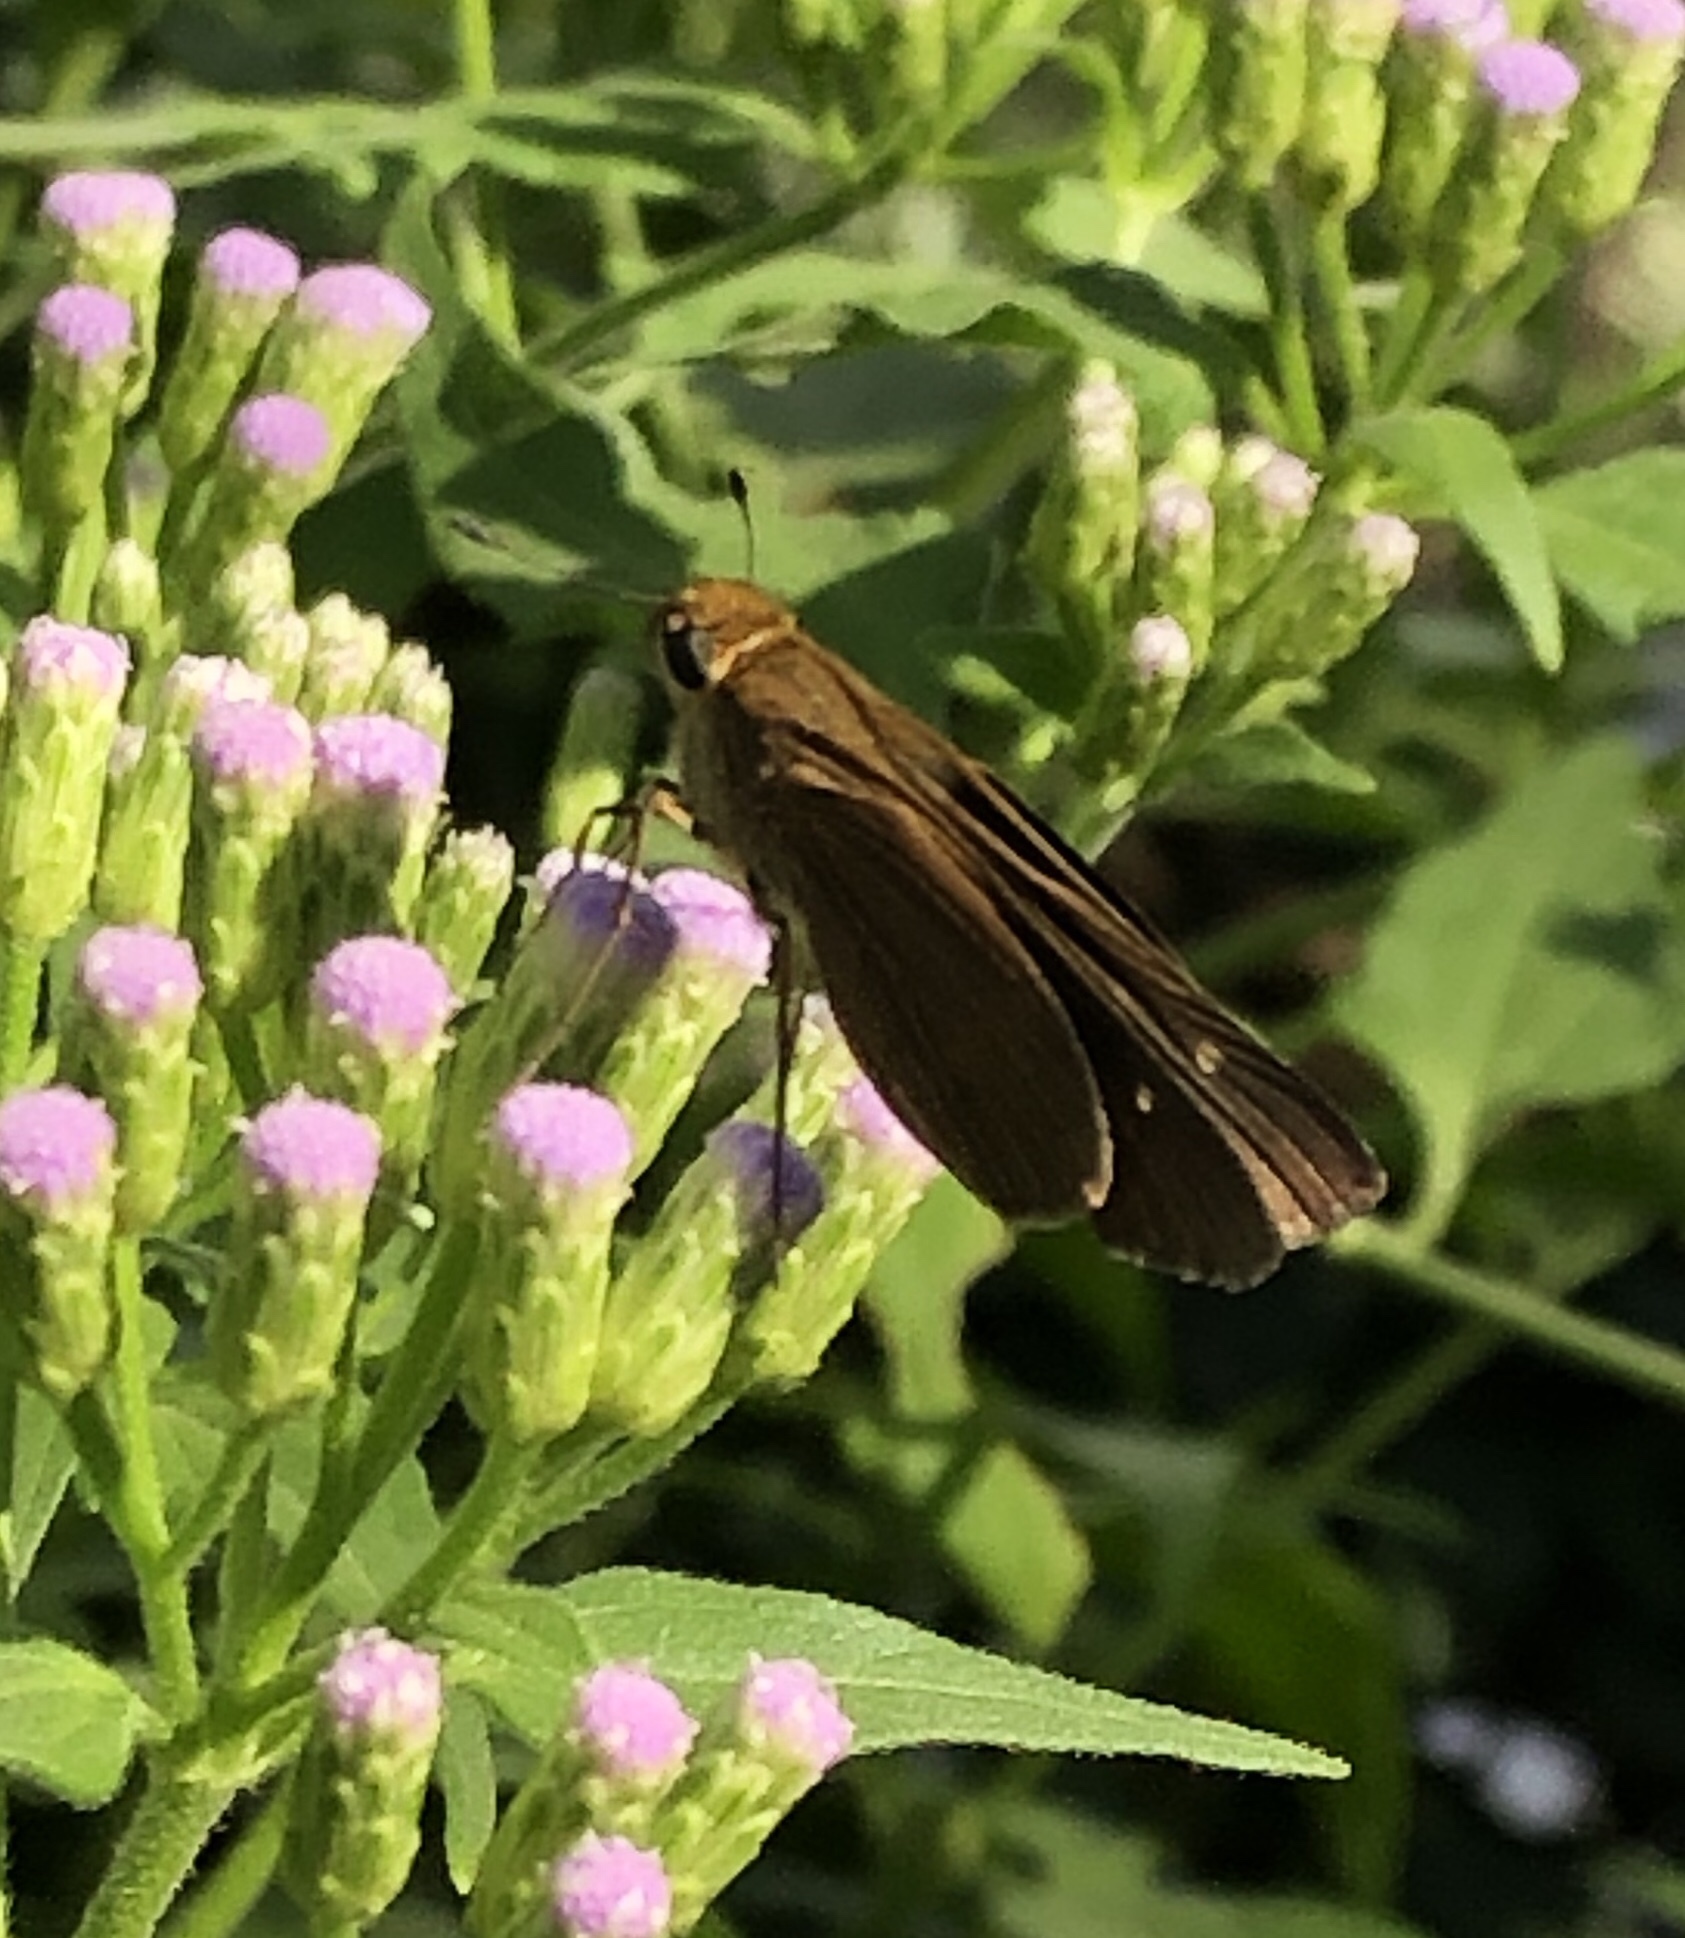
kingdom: Animalia
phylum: Arthropoda
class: Insecta
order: Lepidoptera
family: Hesperiidae
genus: Panoquina
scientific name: Panoquina ocola
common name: Ocola skipper
